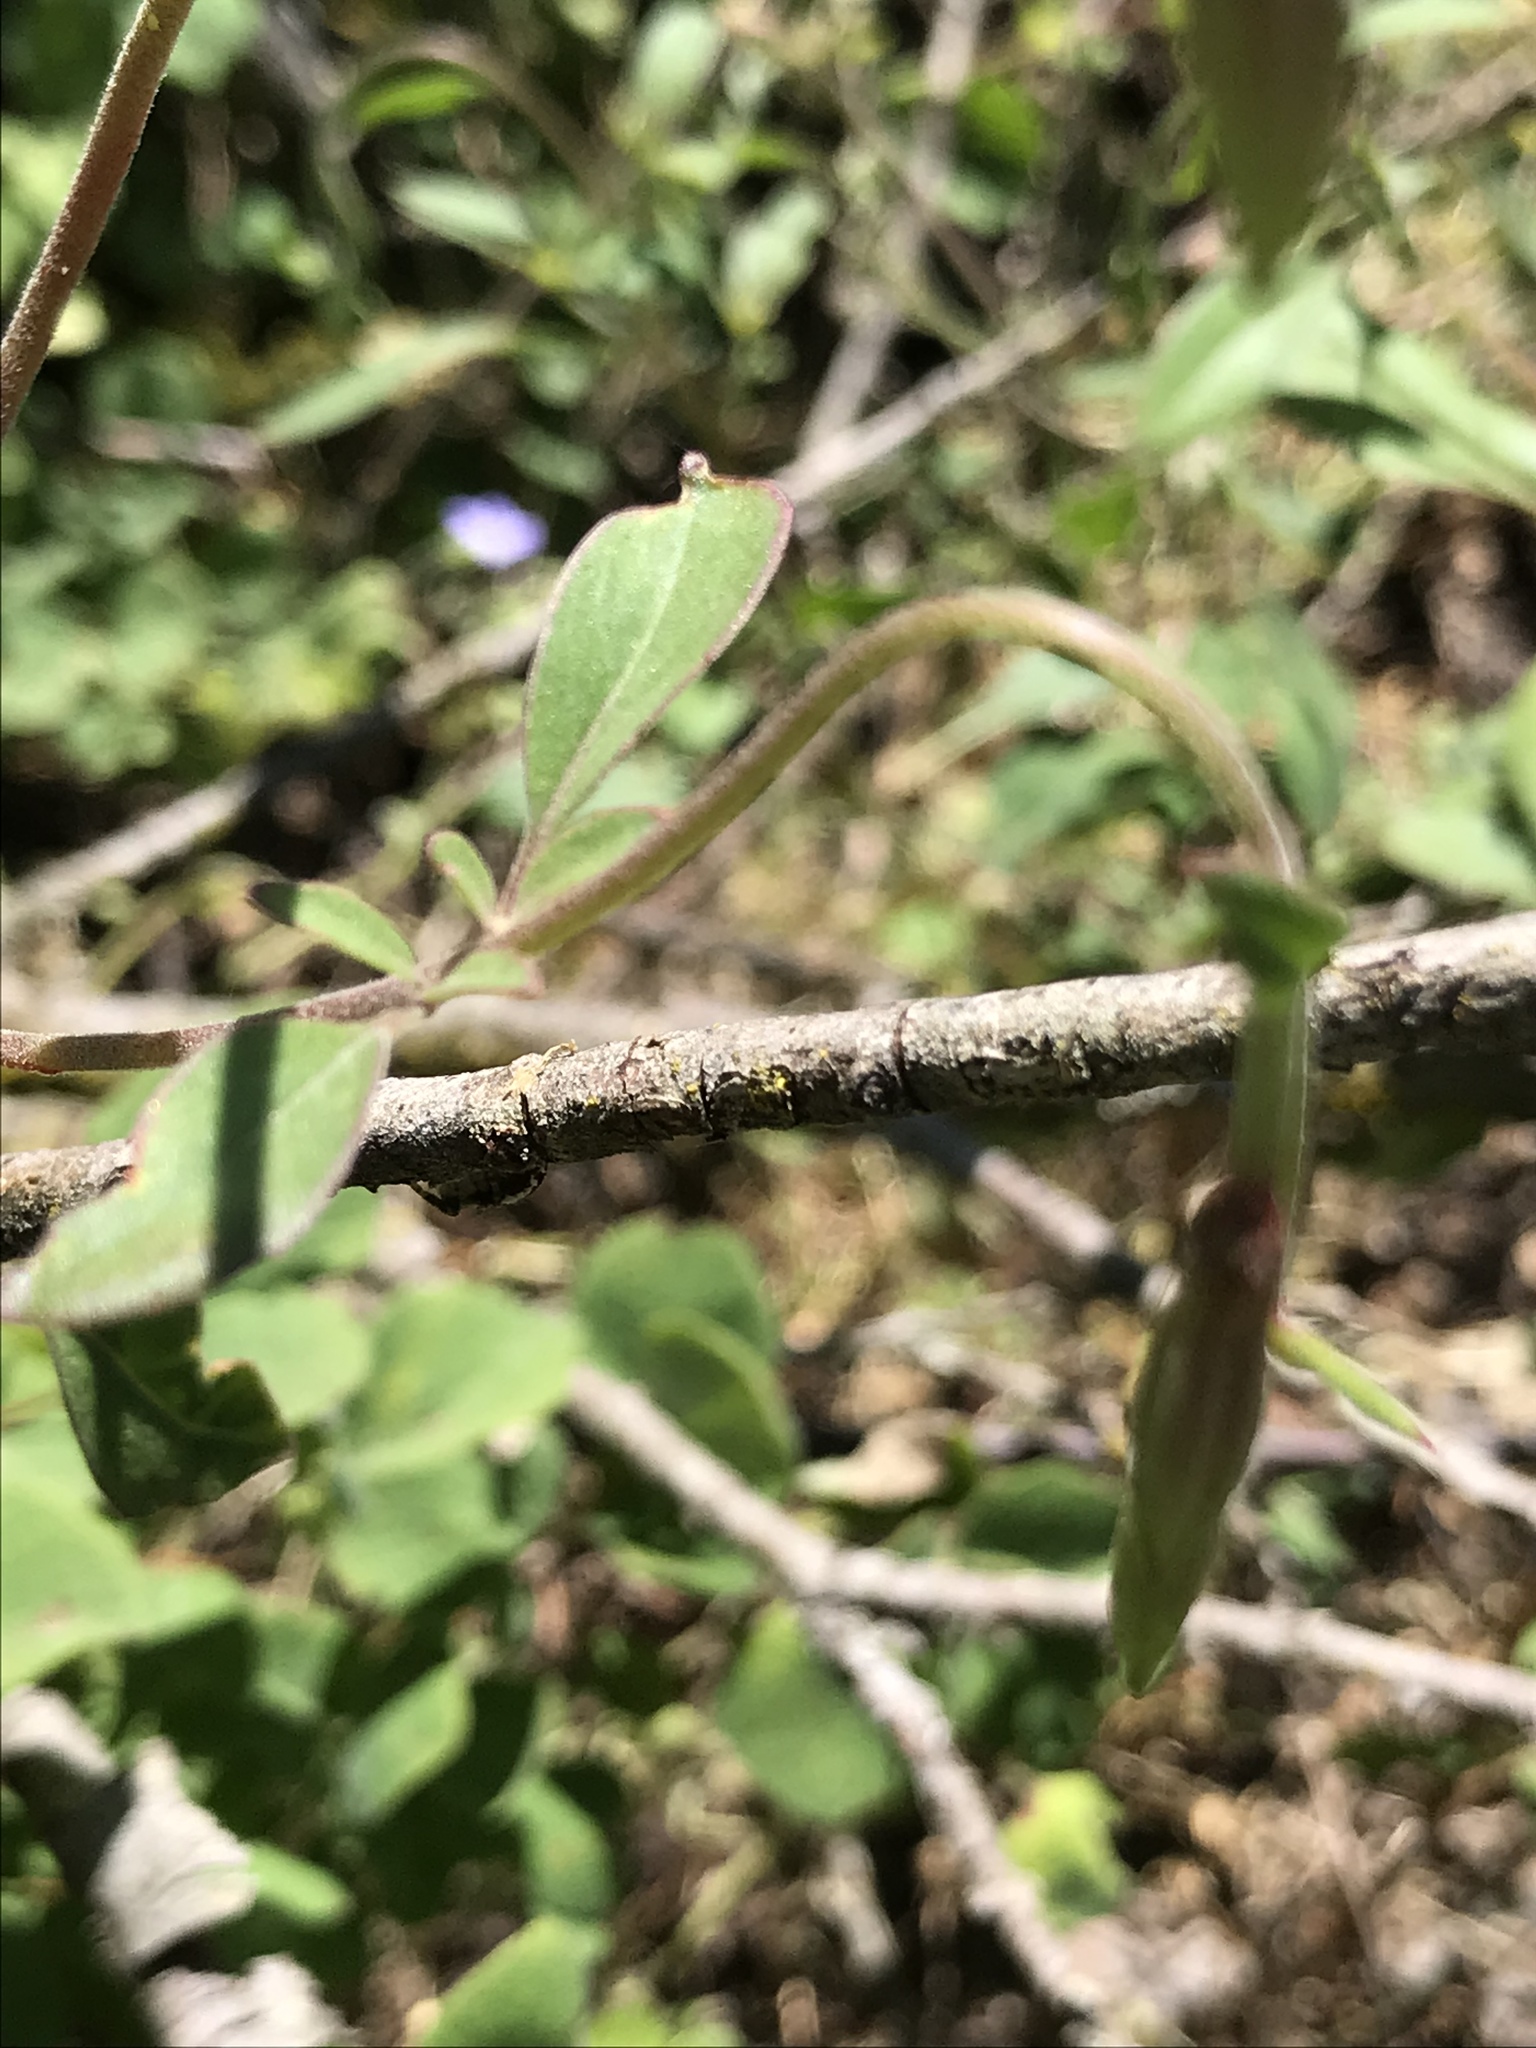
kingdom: Plantae
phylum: Tracheophyta
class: Magnoliopsida
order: Myrtales
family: Onagraceae
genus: Clarkia
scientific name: Clarkia rhomboidea
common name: Broadleaf clarkia
